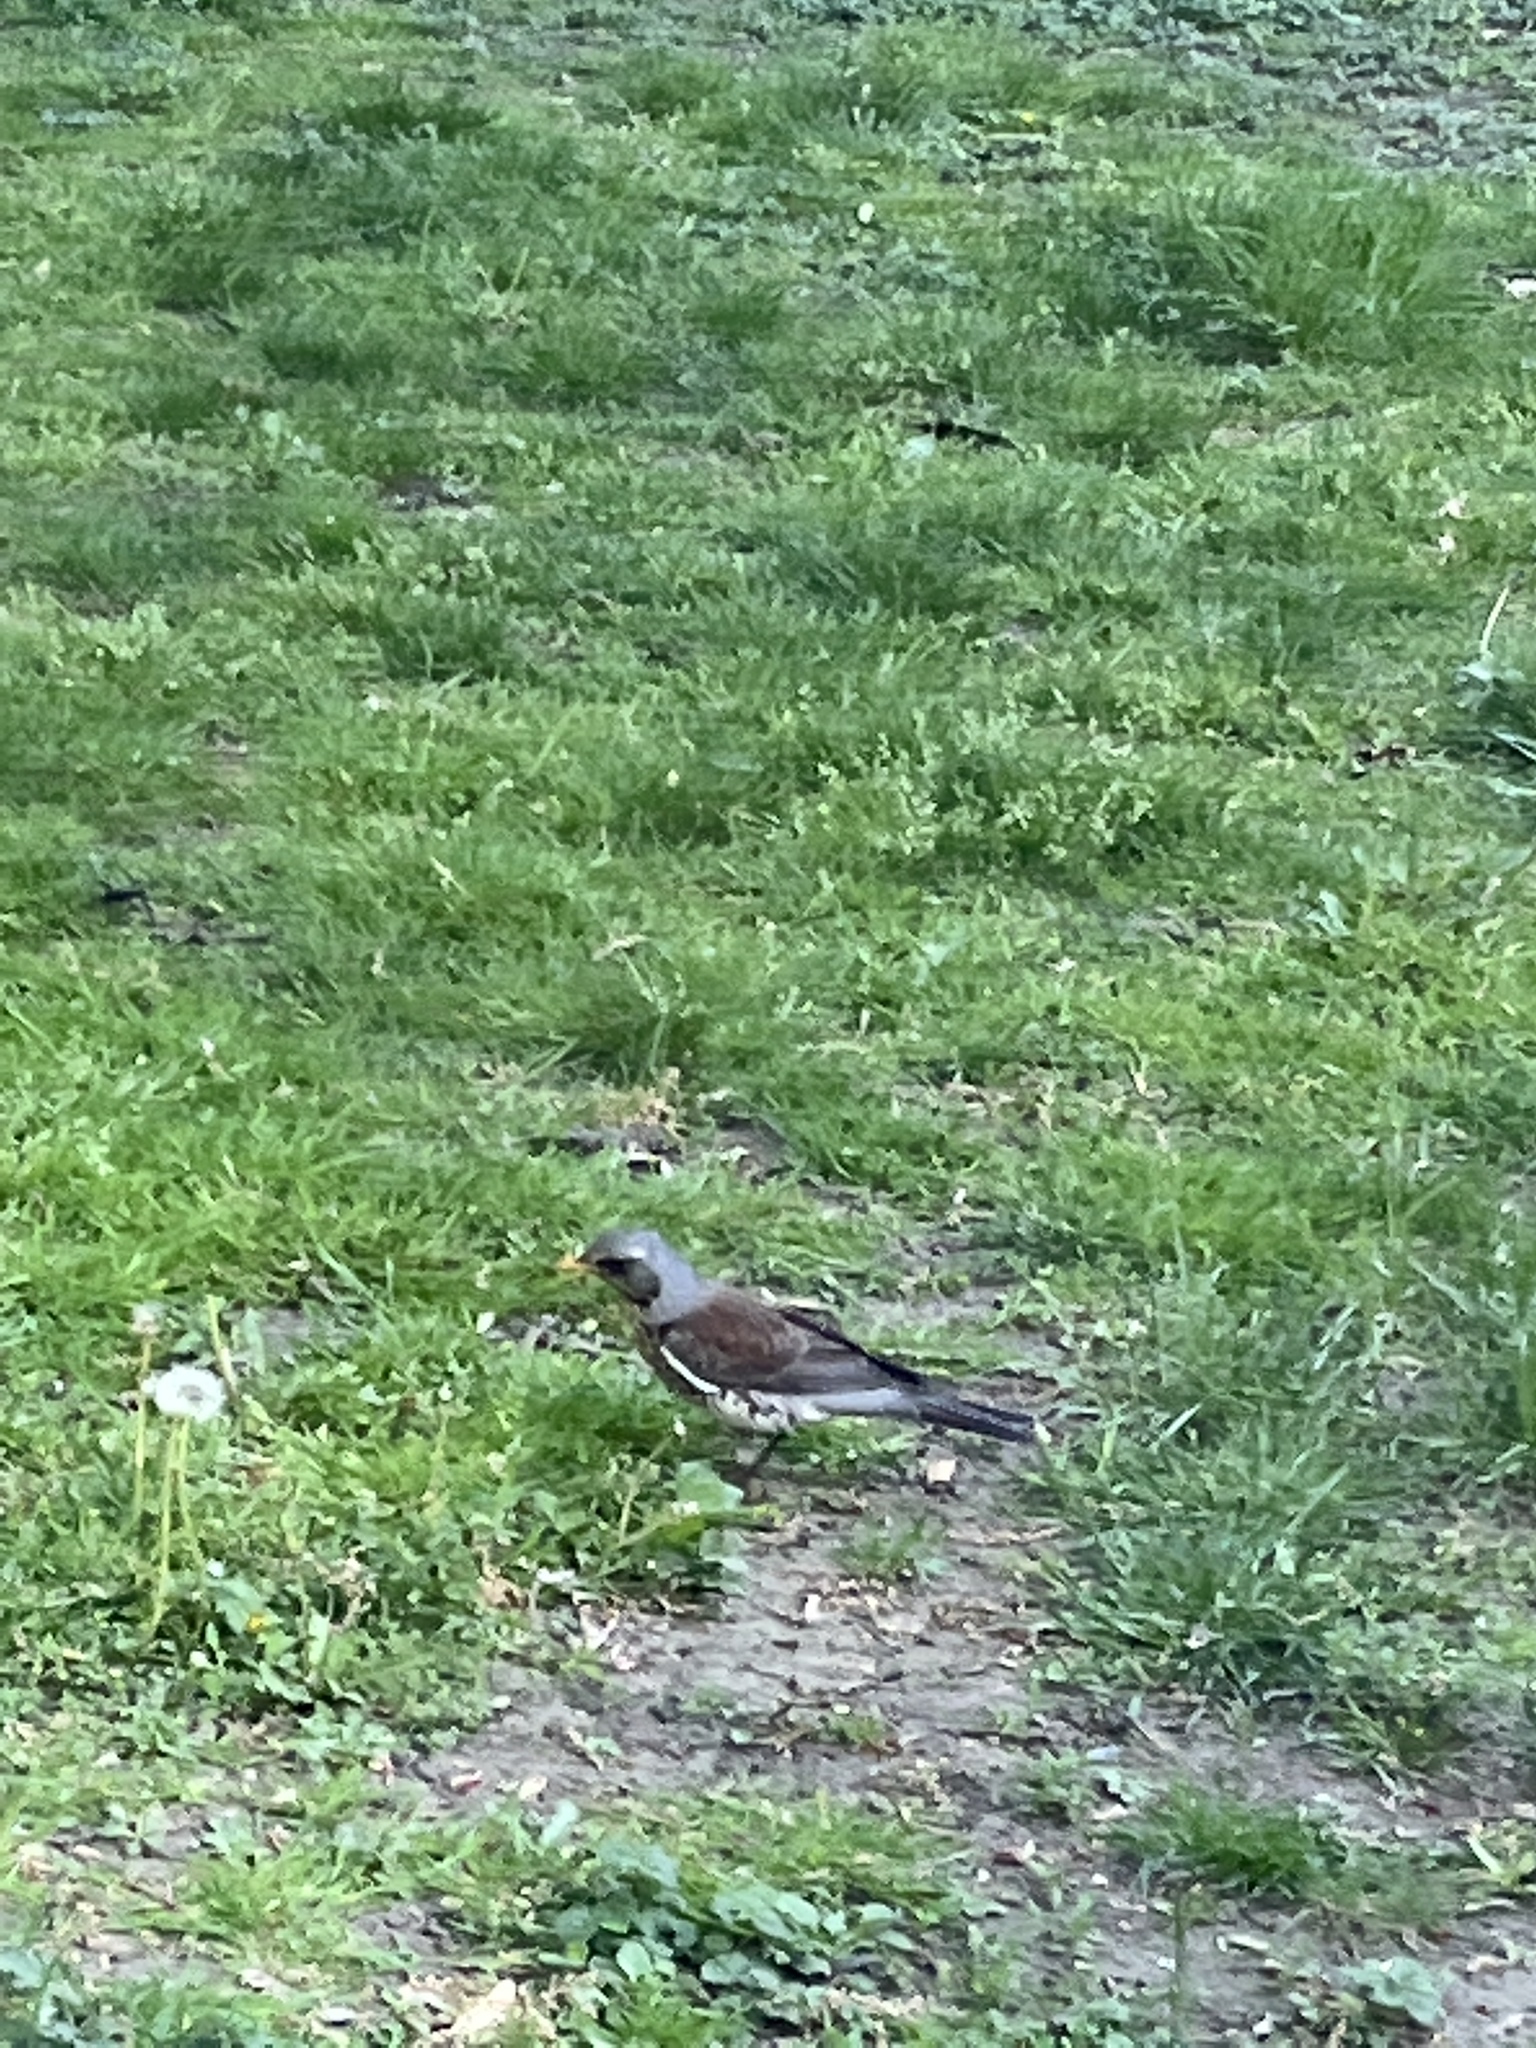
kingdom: Animalia
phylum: Chordata
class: Aves
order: Passeriformes
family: Turdidae
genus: Turdus
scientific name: Turdus pilaris
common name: Fieldfare
